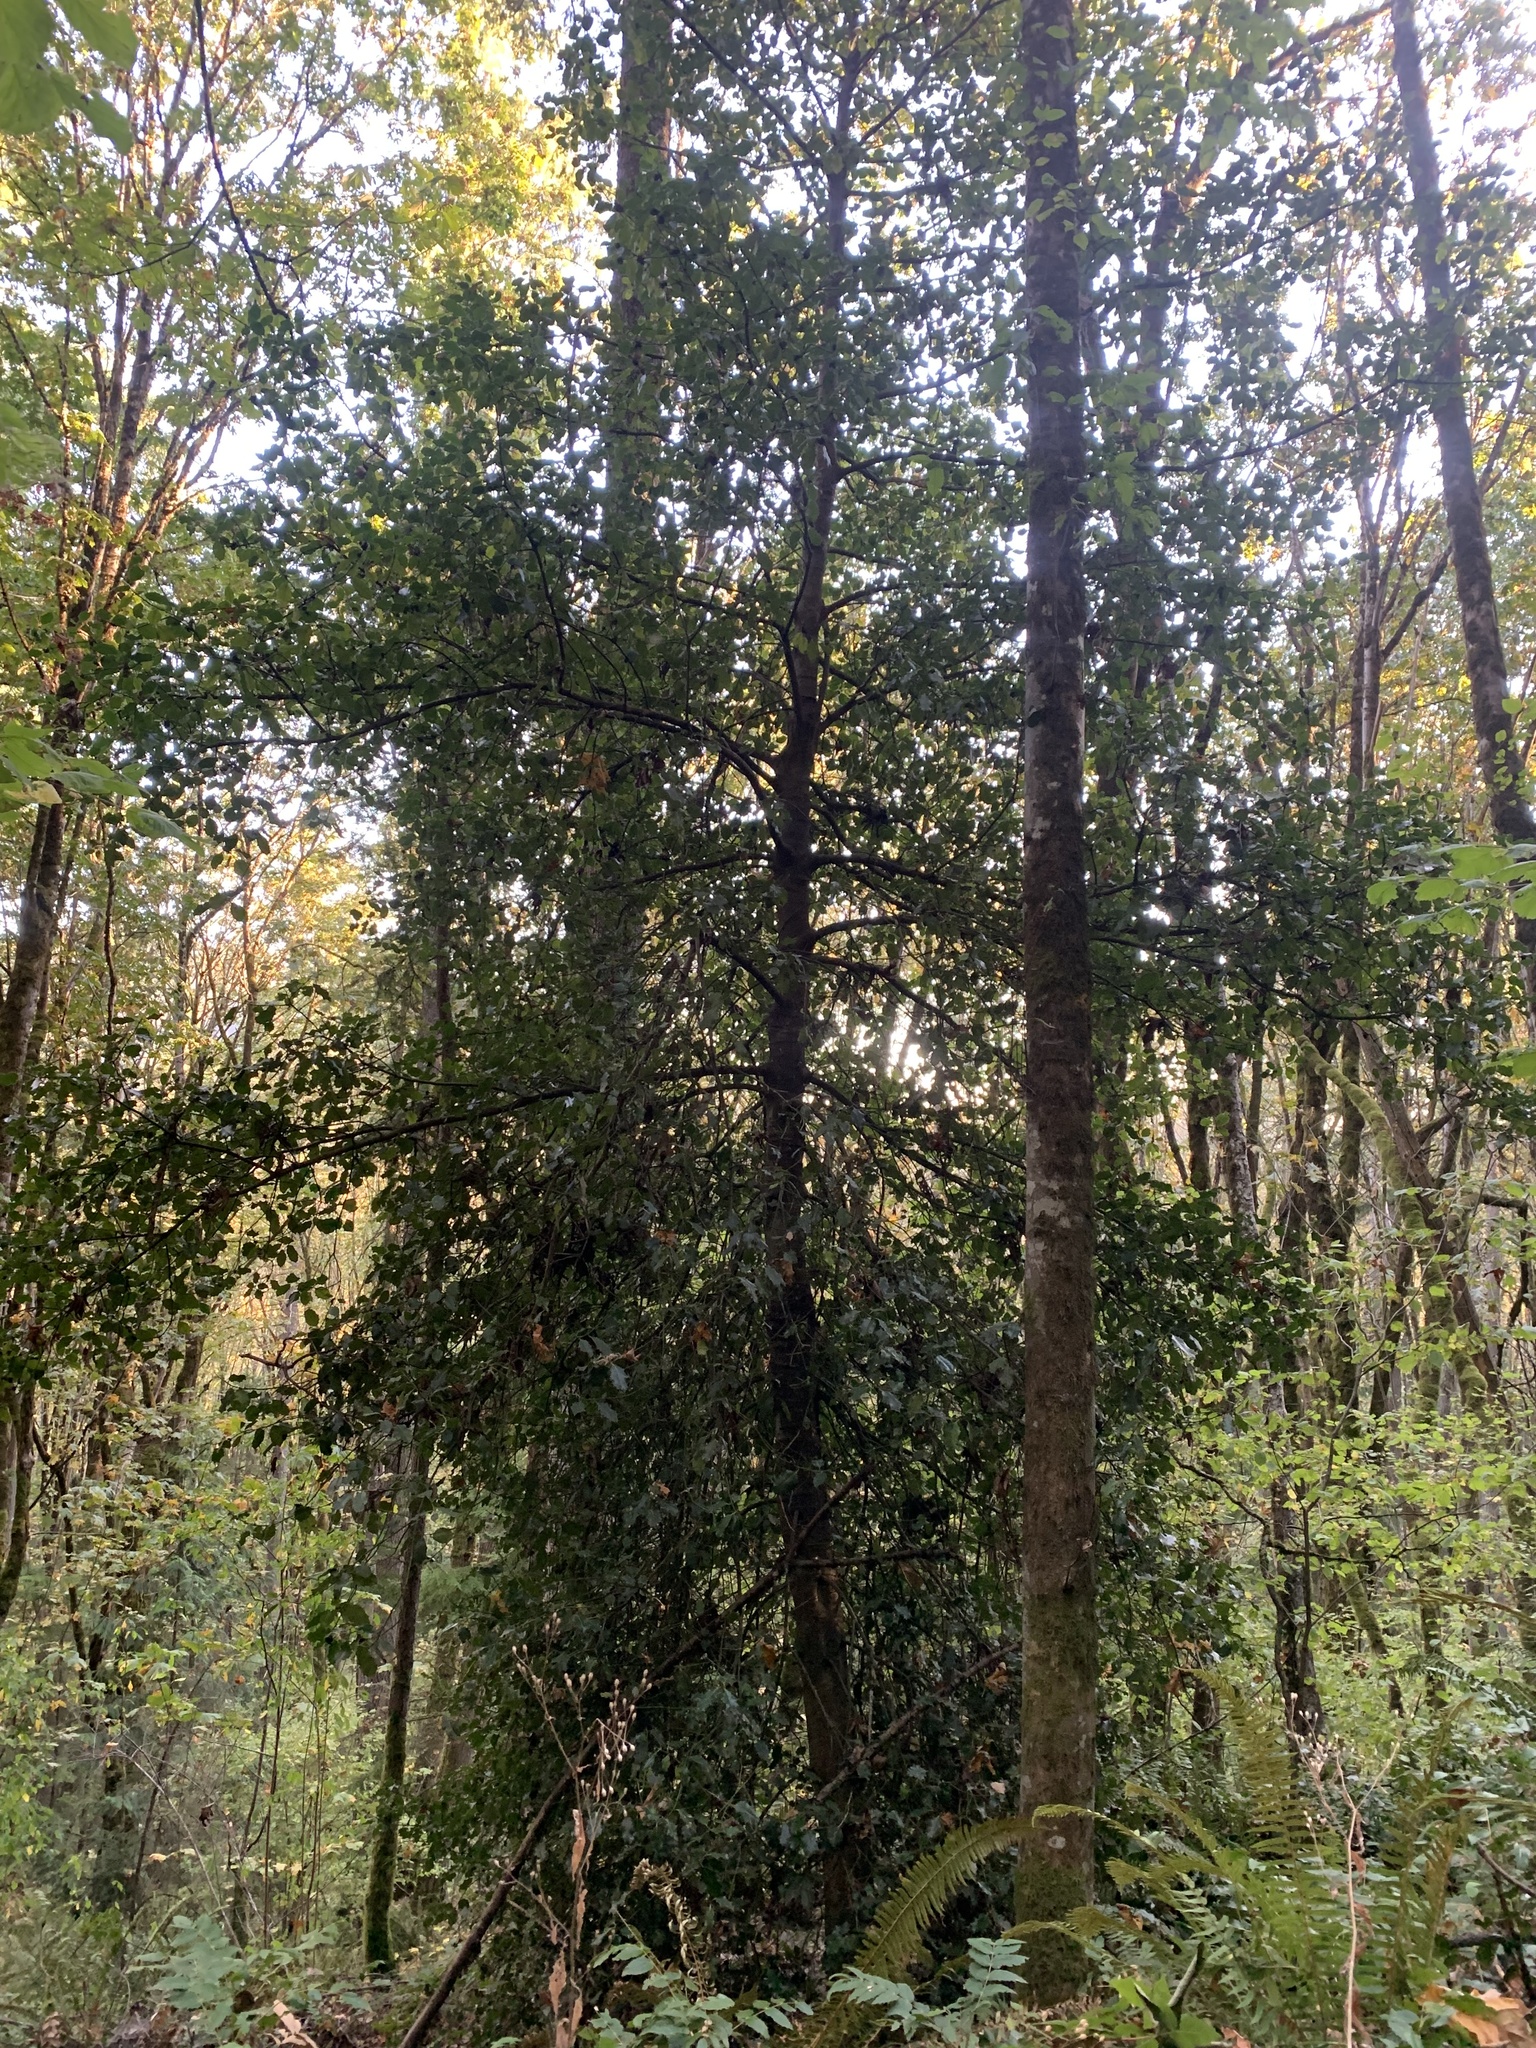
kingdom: Plantae
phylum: Tracheophyta
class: Magnoliopsida
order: Aquifoliales
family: Aquifoliaceae
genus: Ilex
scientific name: Ilex aquifolium
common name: English holly
